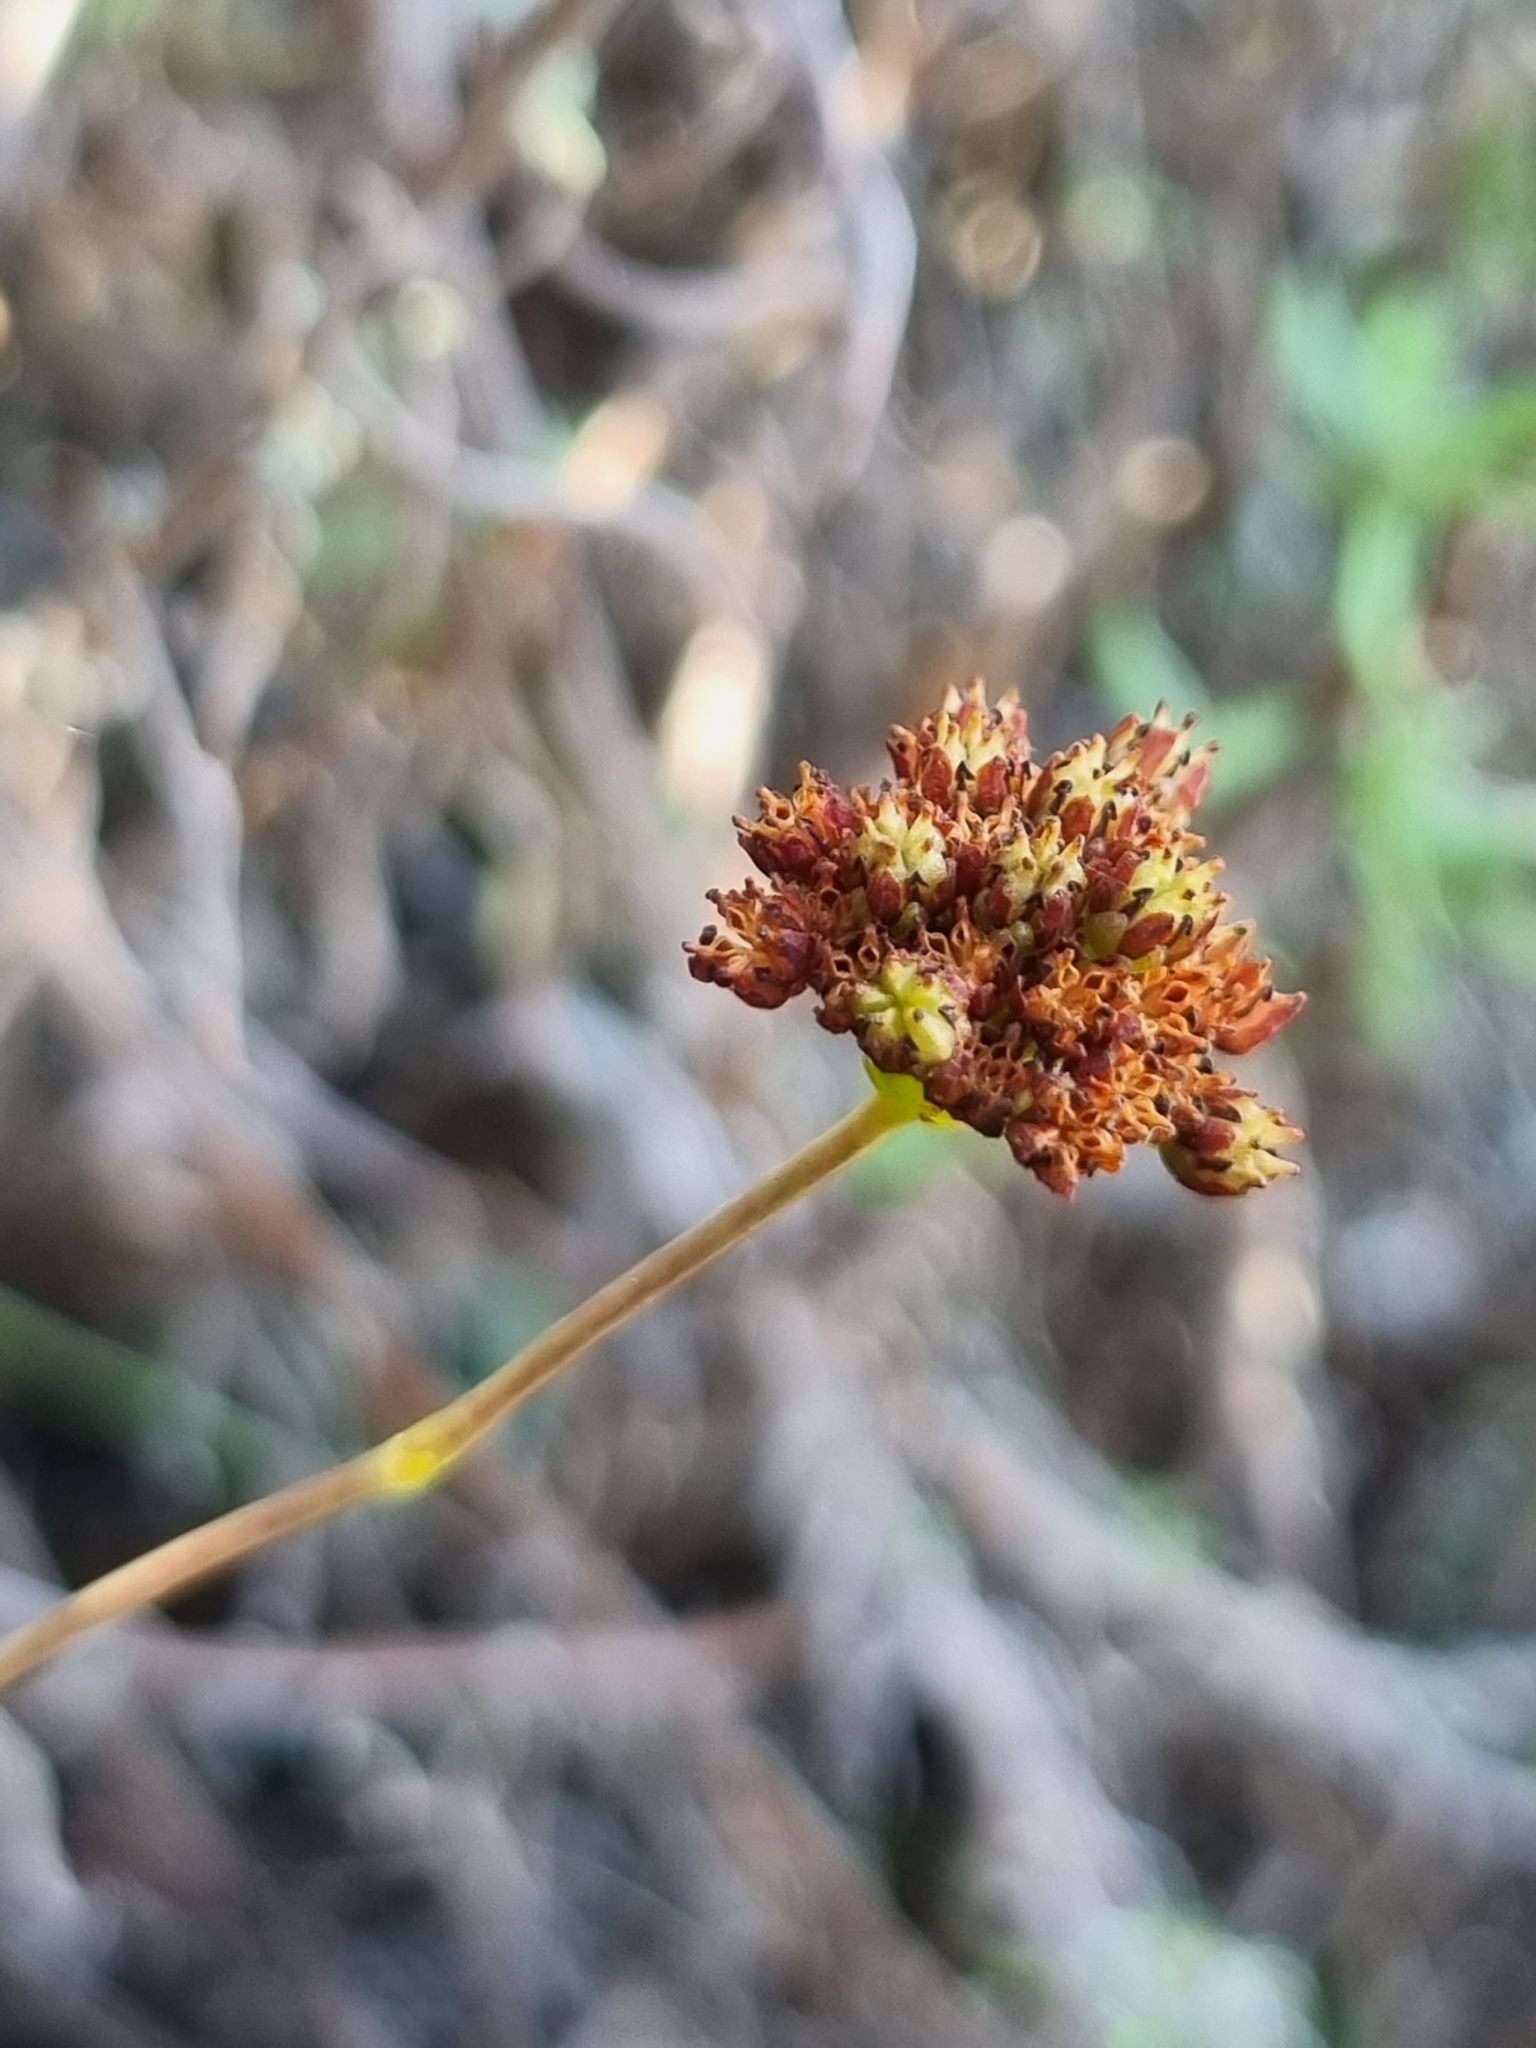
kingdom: Plantae
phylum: Tracheophyta
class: Magnoliopsida
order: Saxifragales
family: Crassulaceae
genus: Crassula
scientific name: Crassula tetragona
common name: Pygmyweed
